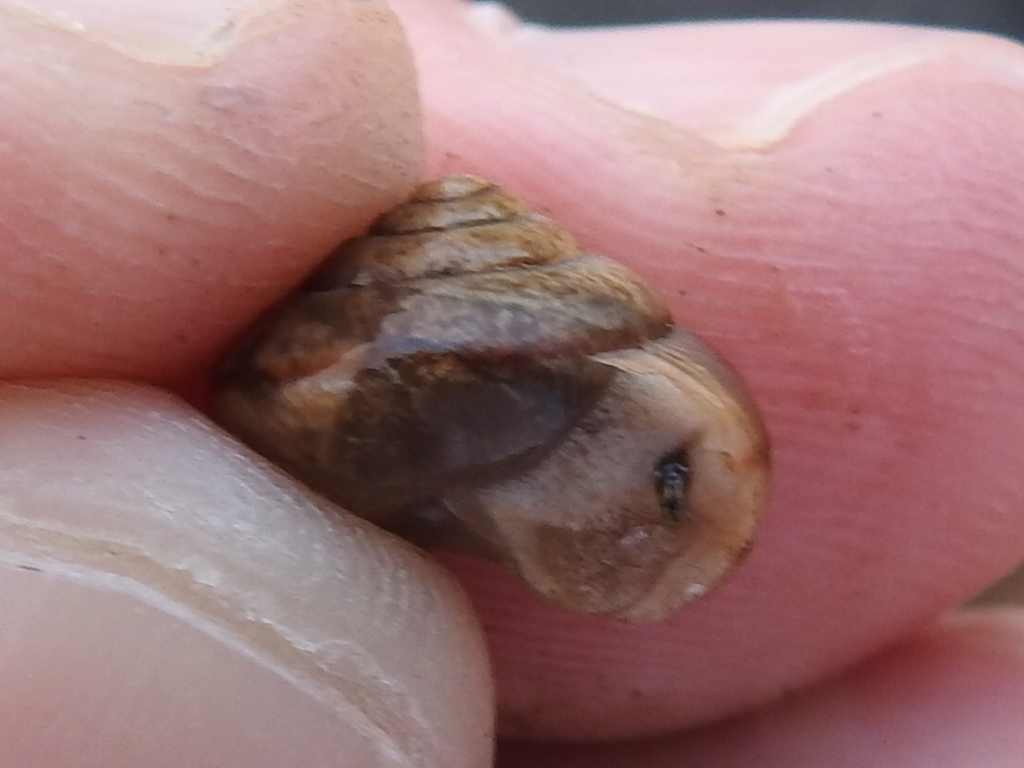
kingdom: Animalia
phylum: Mollusca
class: Gastropoda
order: Stylommatophora
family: Camaenidae
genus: Bradybaena
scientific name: Bradybaena similaris
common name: Asian trampsnail
